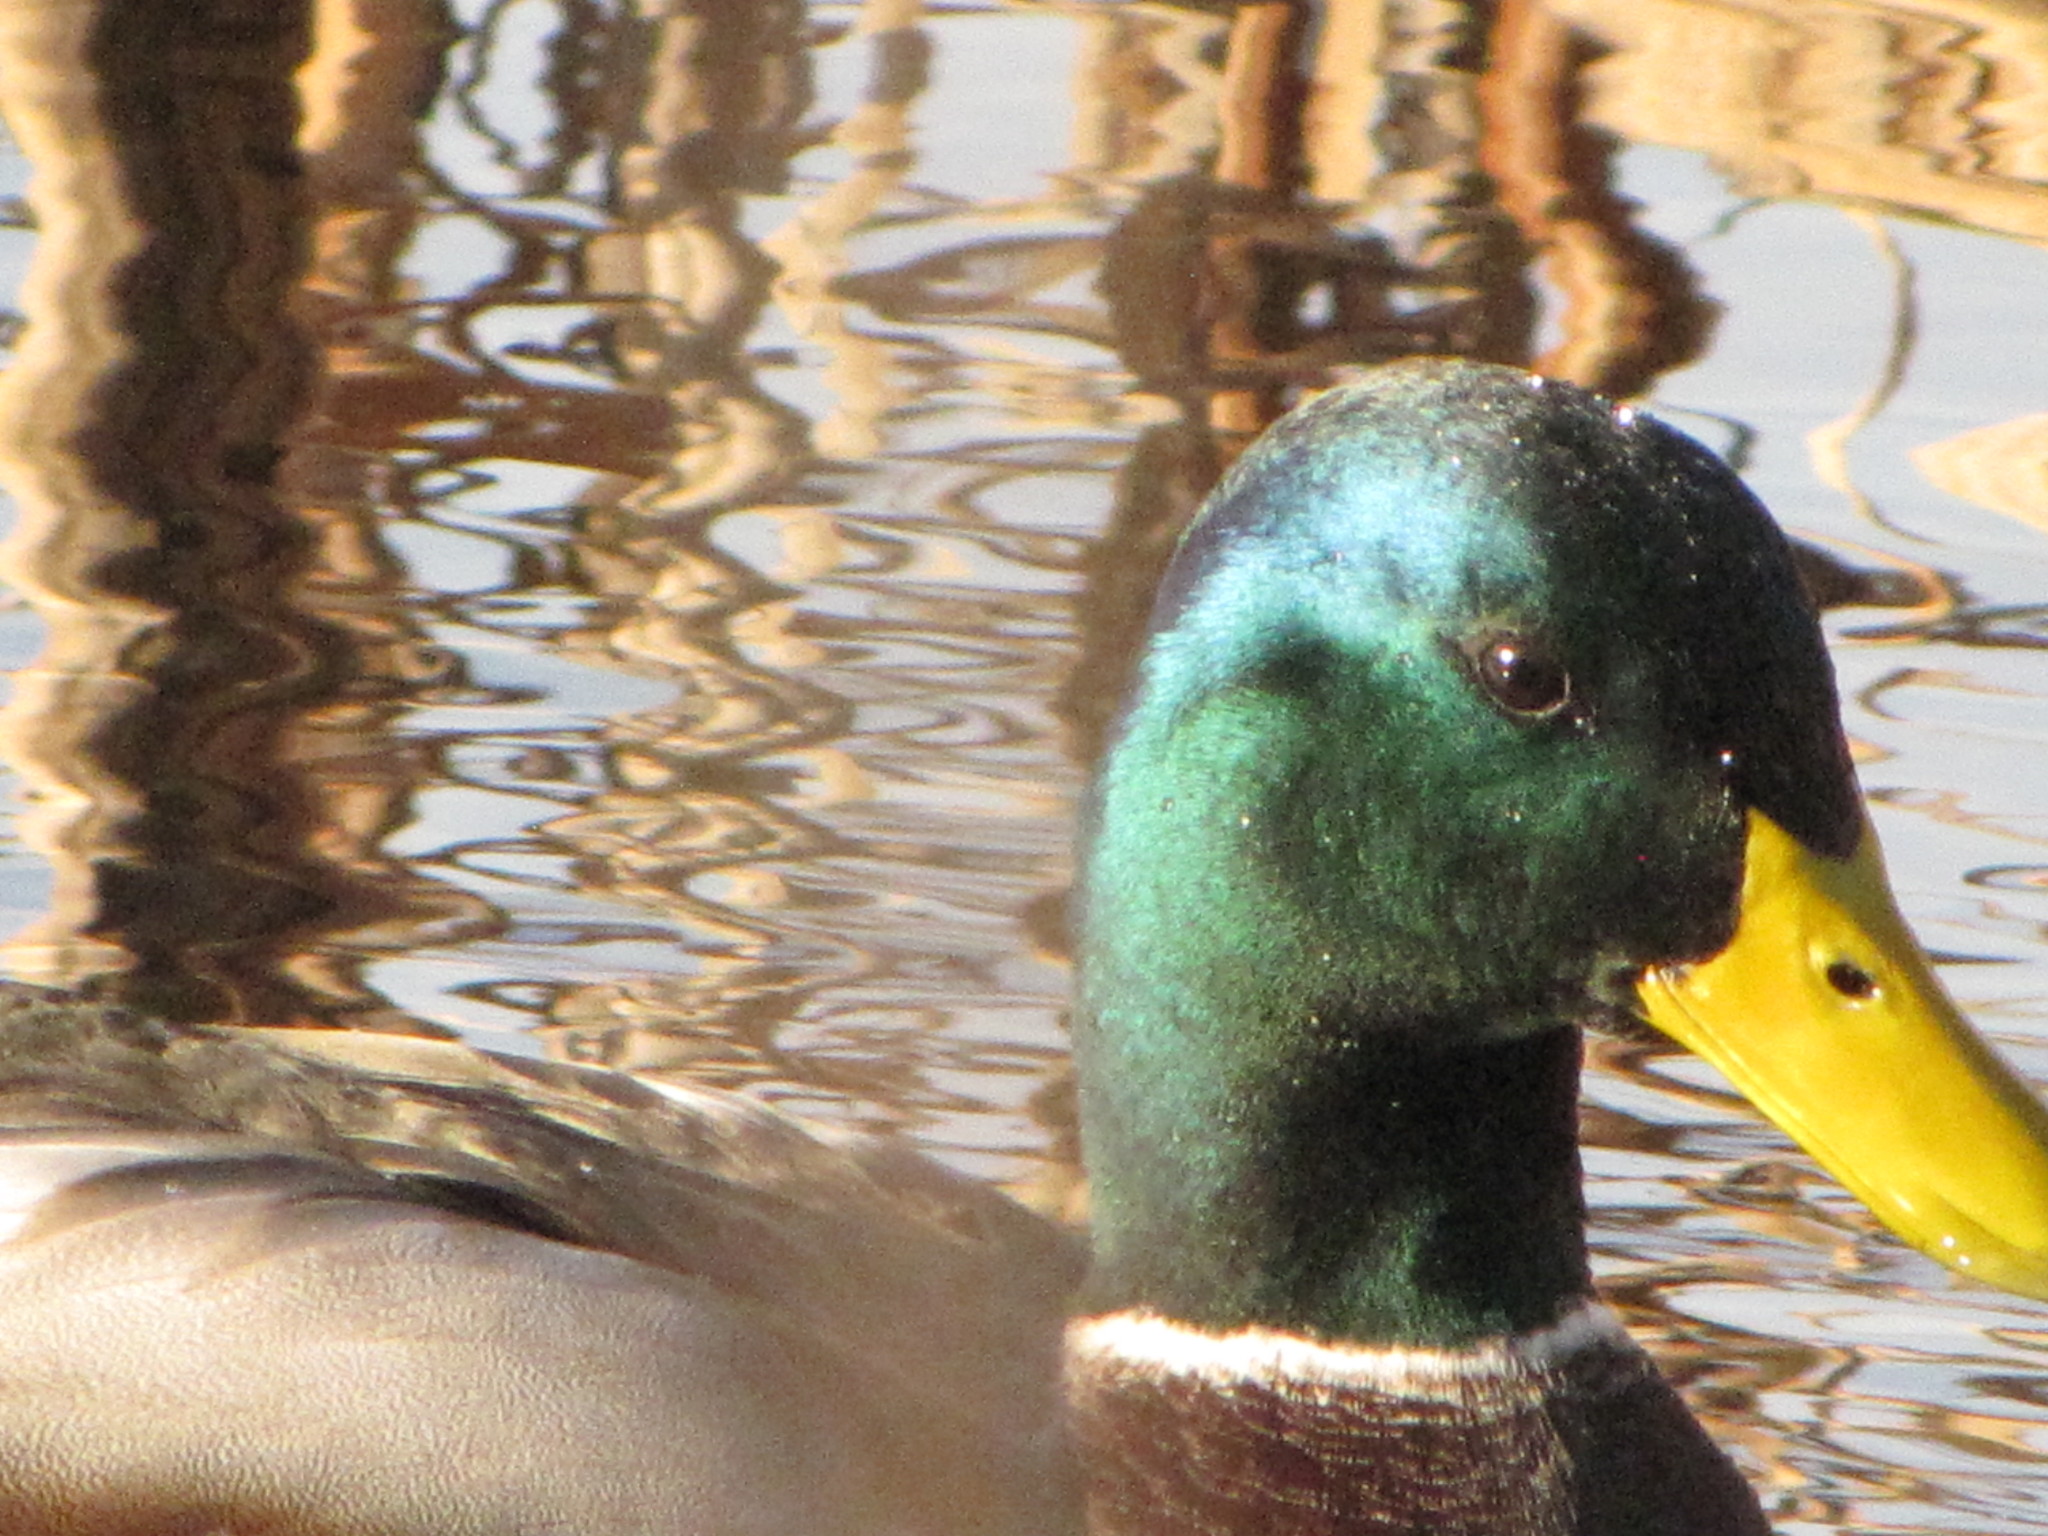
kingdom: Animalia
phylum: Chordata
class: Aves
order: Anseriformes
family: Anatidae
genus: Anas
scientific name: Anas platyrhynchos
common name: Mallard
